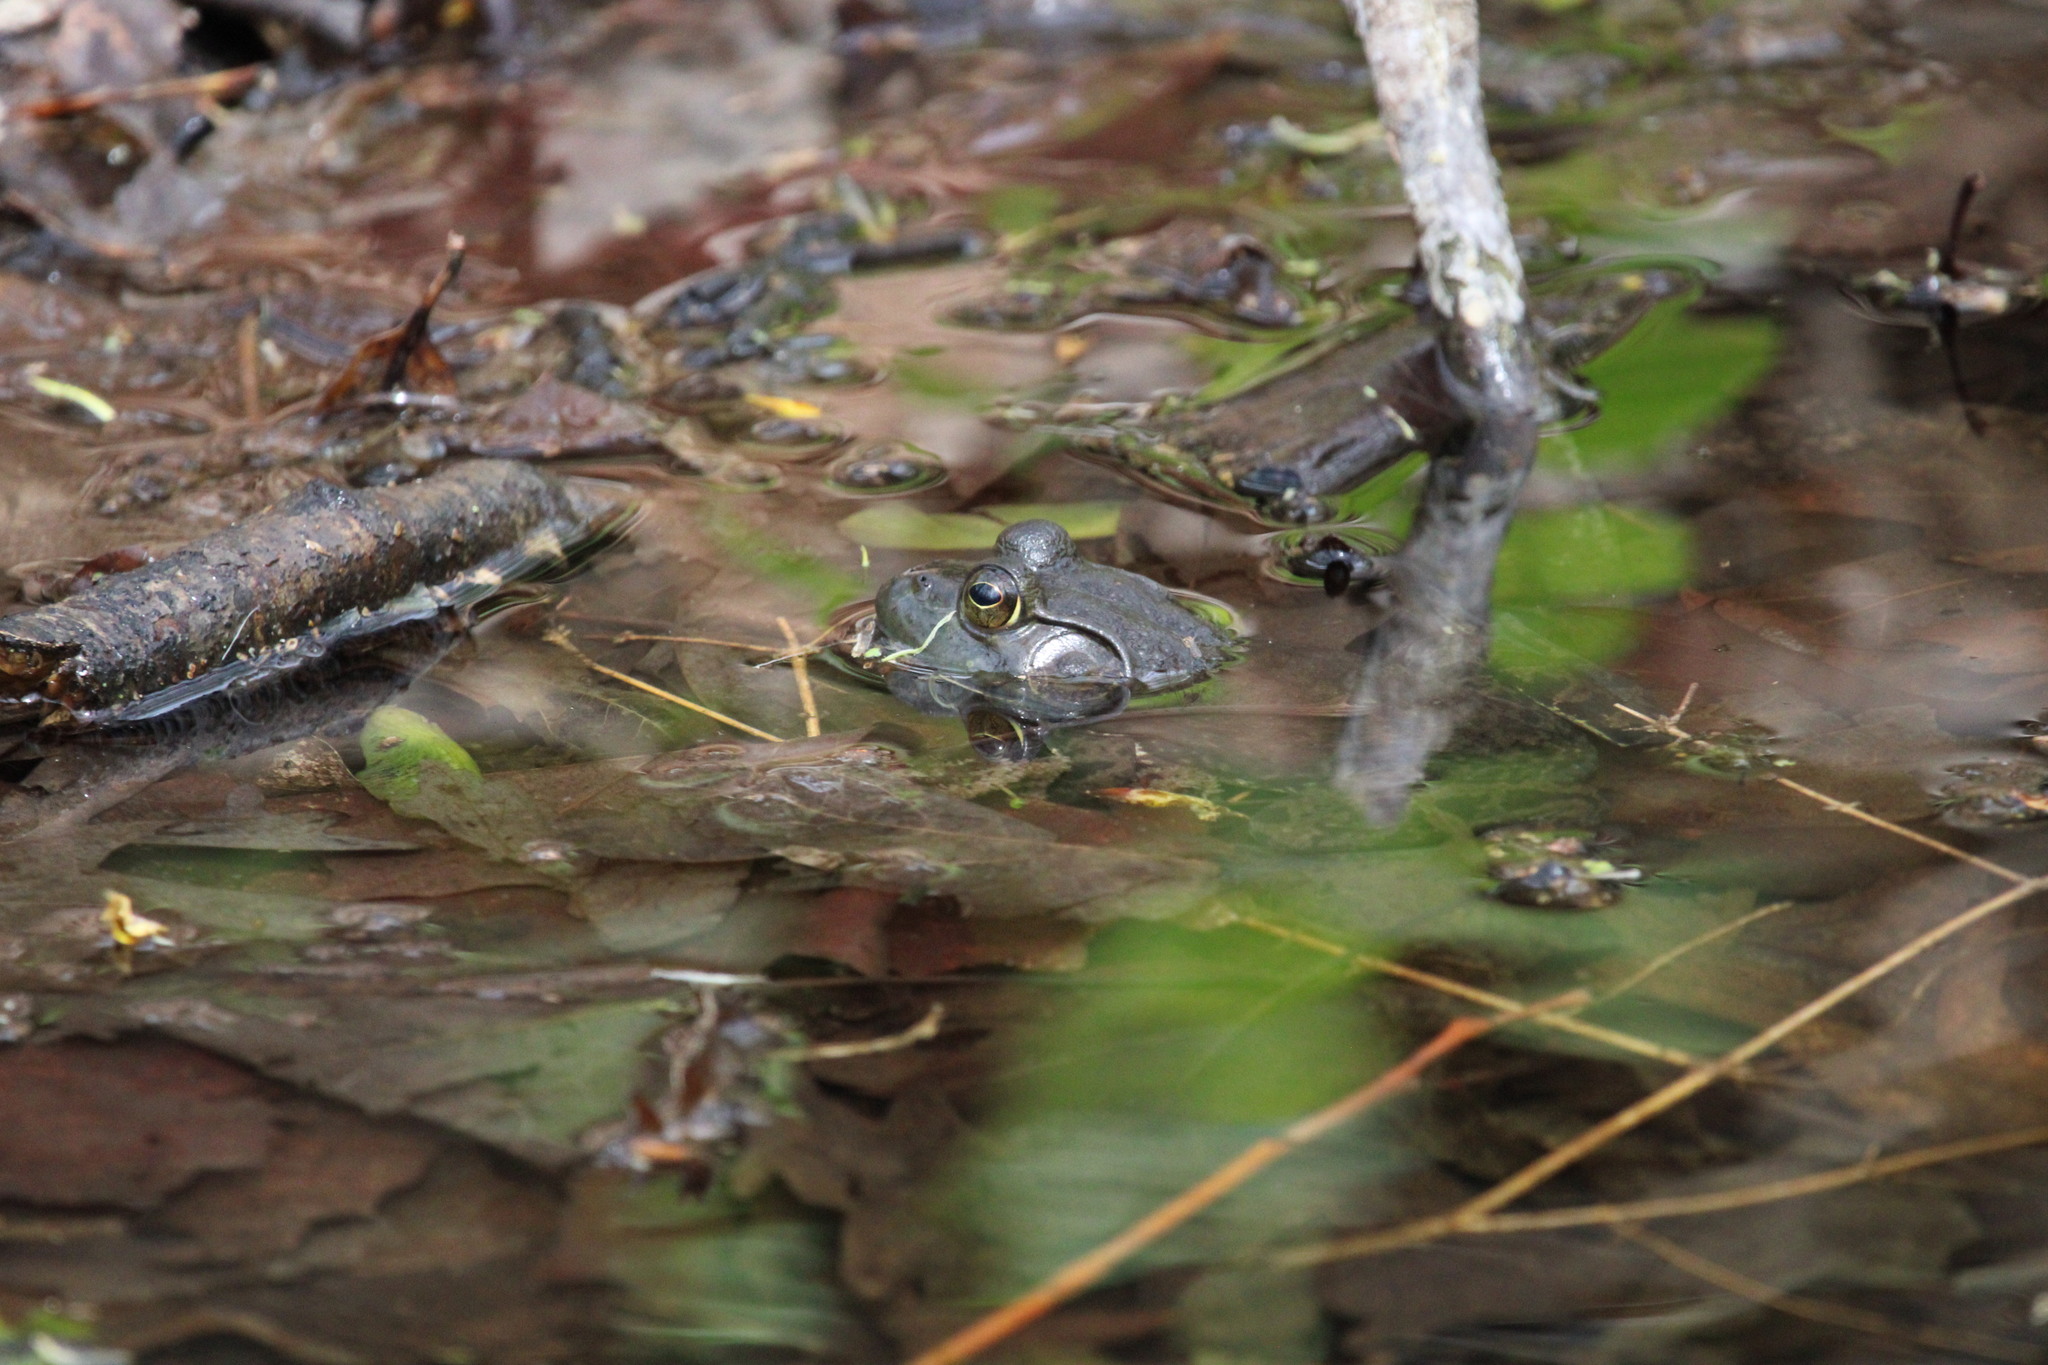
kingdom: Animalia
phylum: Chordata
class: Amphibia
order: Anura
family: Ranidae
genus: Lithobates
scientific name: Lithobates catesbeianus
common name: American bullfrog
